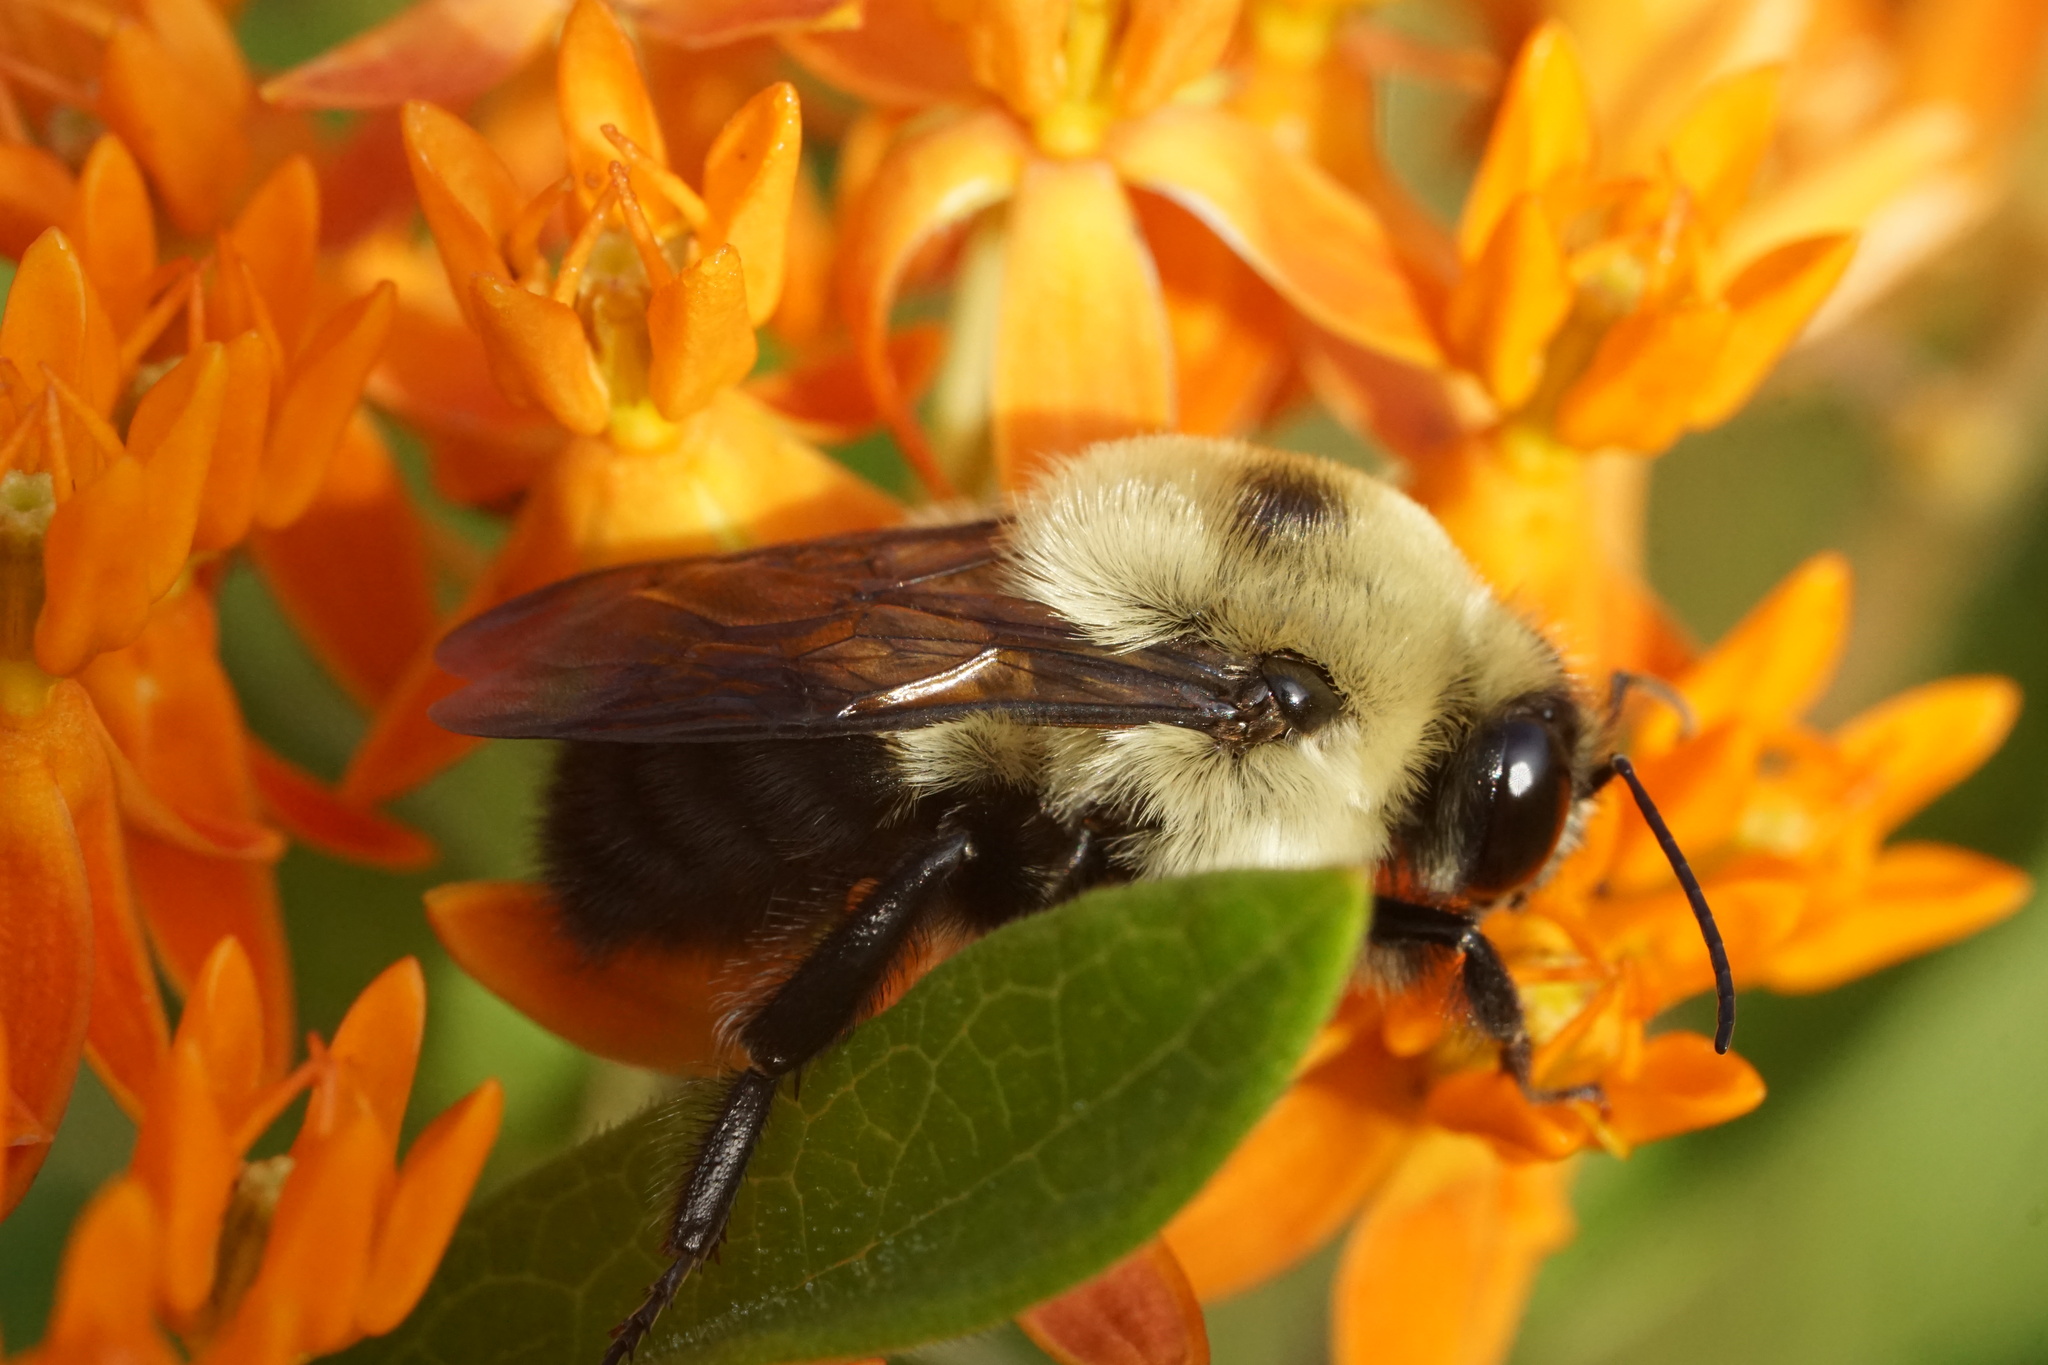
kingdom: Animalia
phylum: Arthropoda
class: Insecta
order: Hymenoptera
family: Apidae
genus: Bombus
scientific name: Bombus griseocollis
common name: Brown-belted bumble bee
